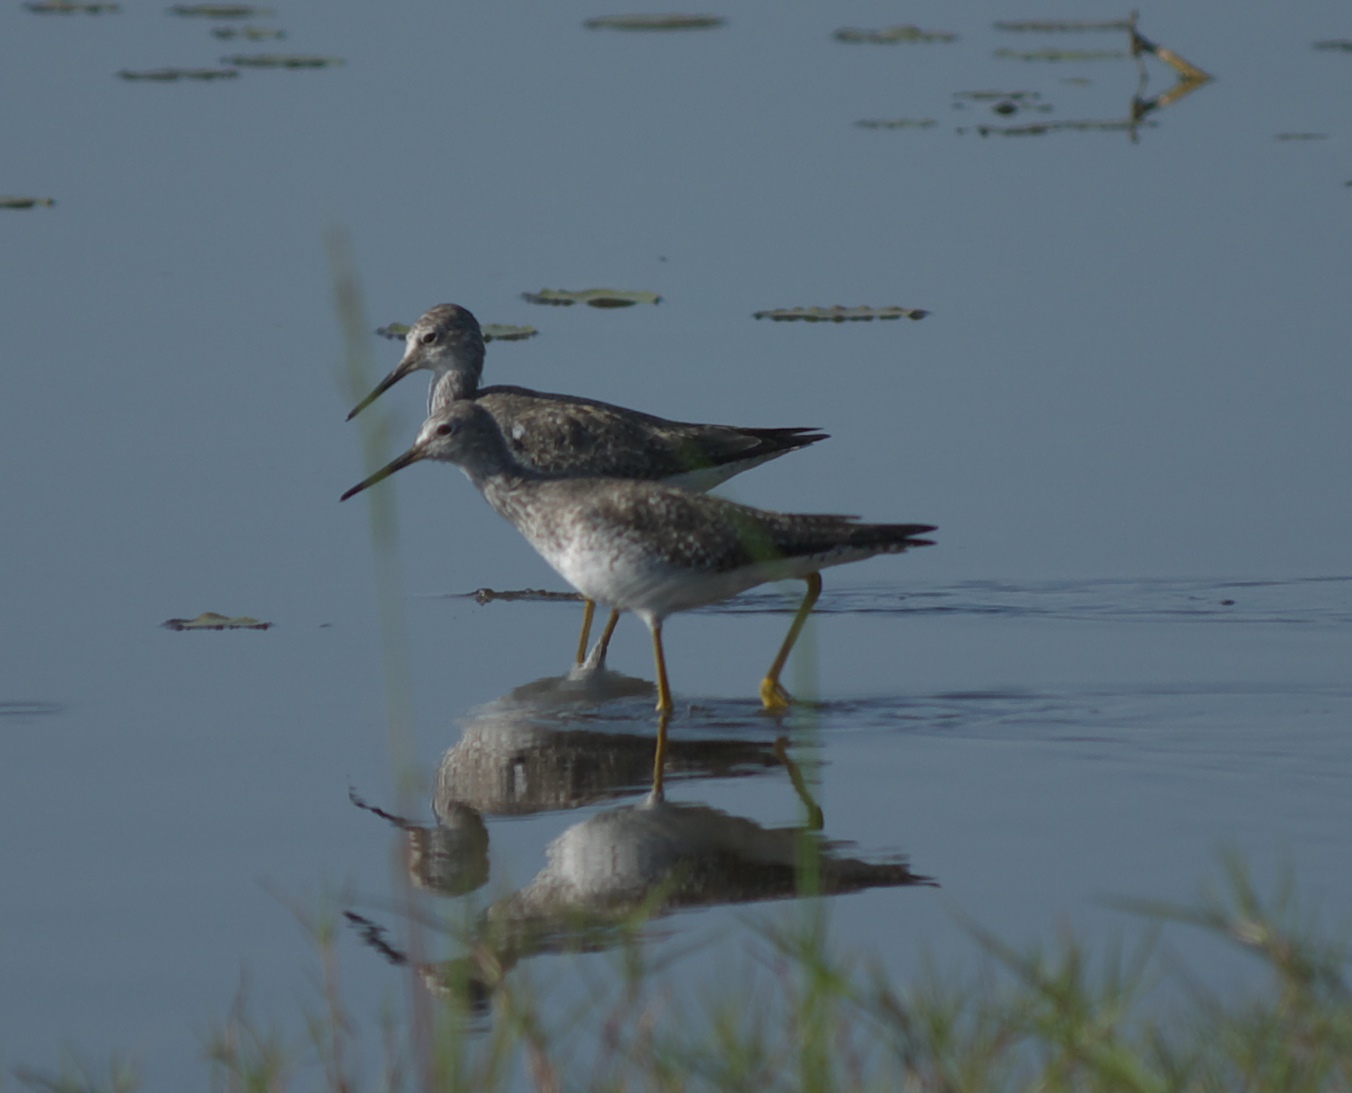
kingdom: Animalia
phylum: Chordata
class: Aves
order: Charadriiformes
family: Scolopacidae
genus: Tringa
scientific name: Tringa melanoleuca
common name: Greater yellowlegs
